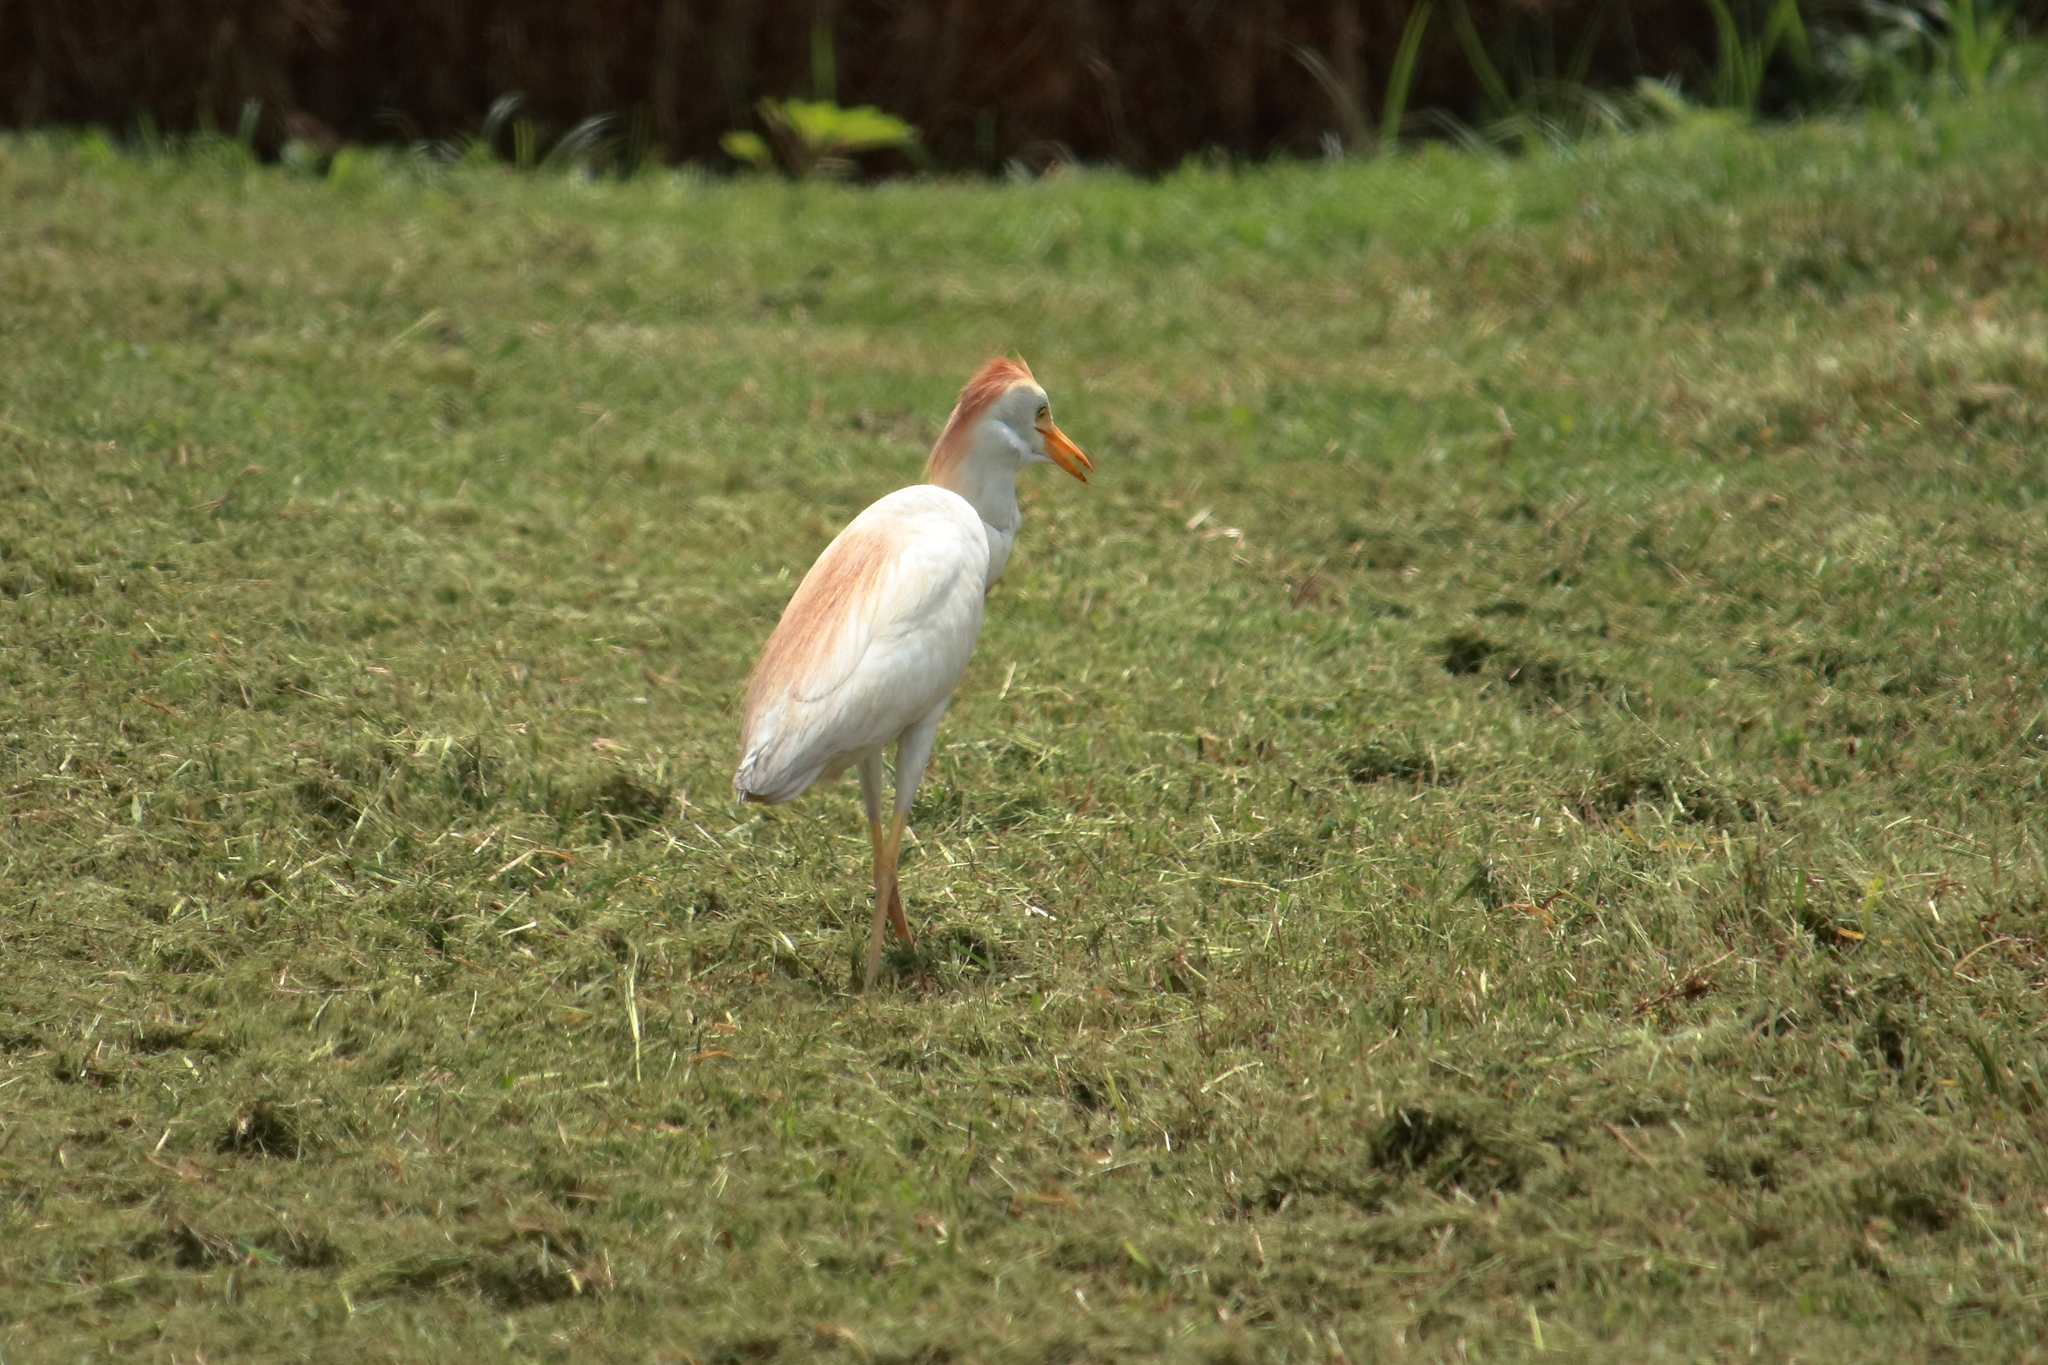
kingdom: Animalia
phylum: Chordata
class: Aves
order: Pelecaniformes
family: Ardeidae
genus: Bubulcus
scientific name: Bubulcus ibis
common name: Cattle egret
